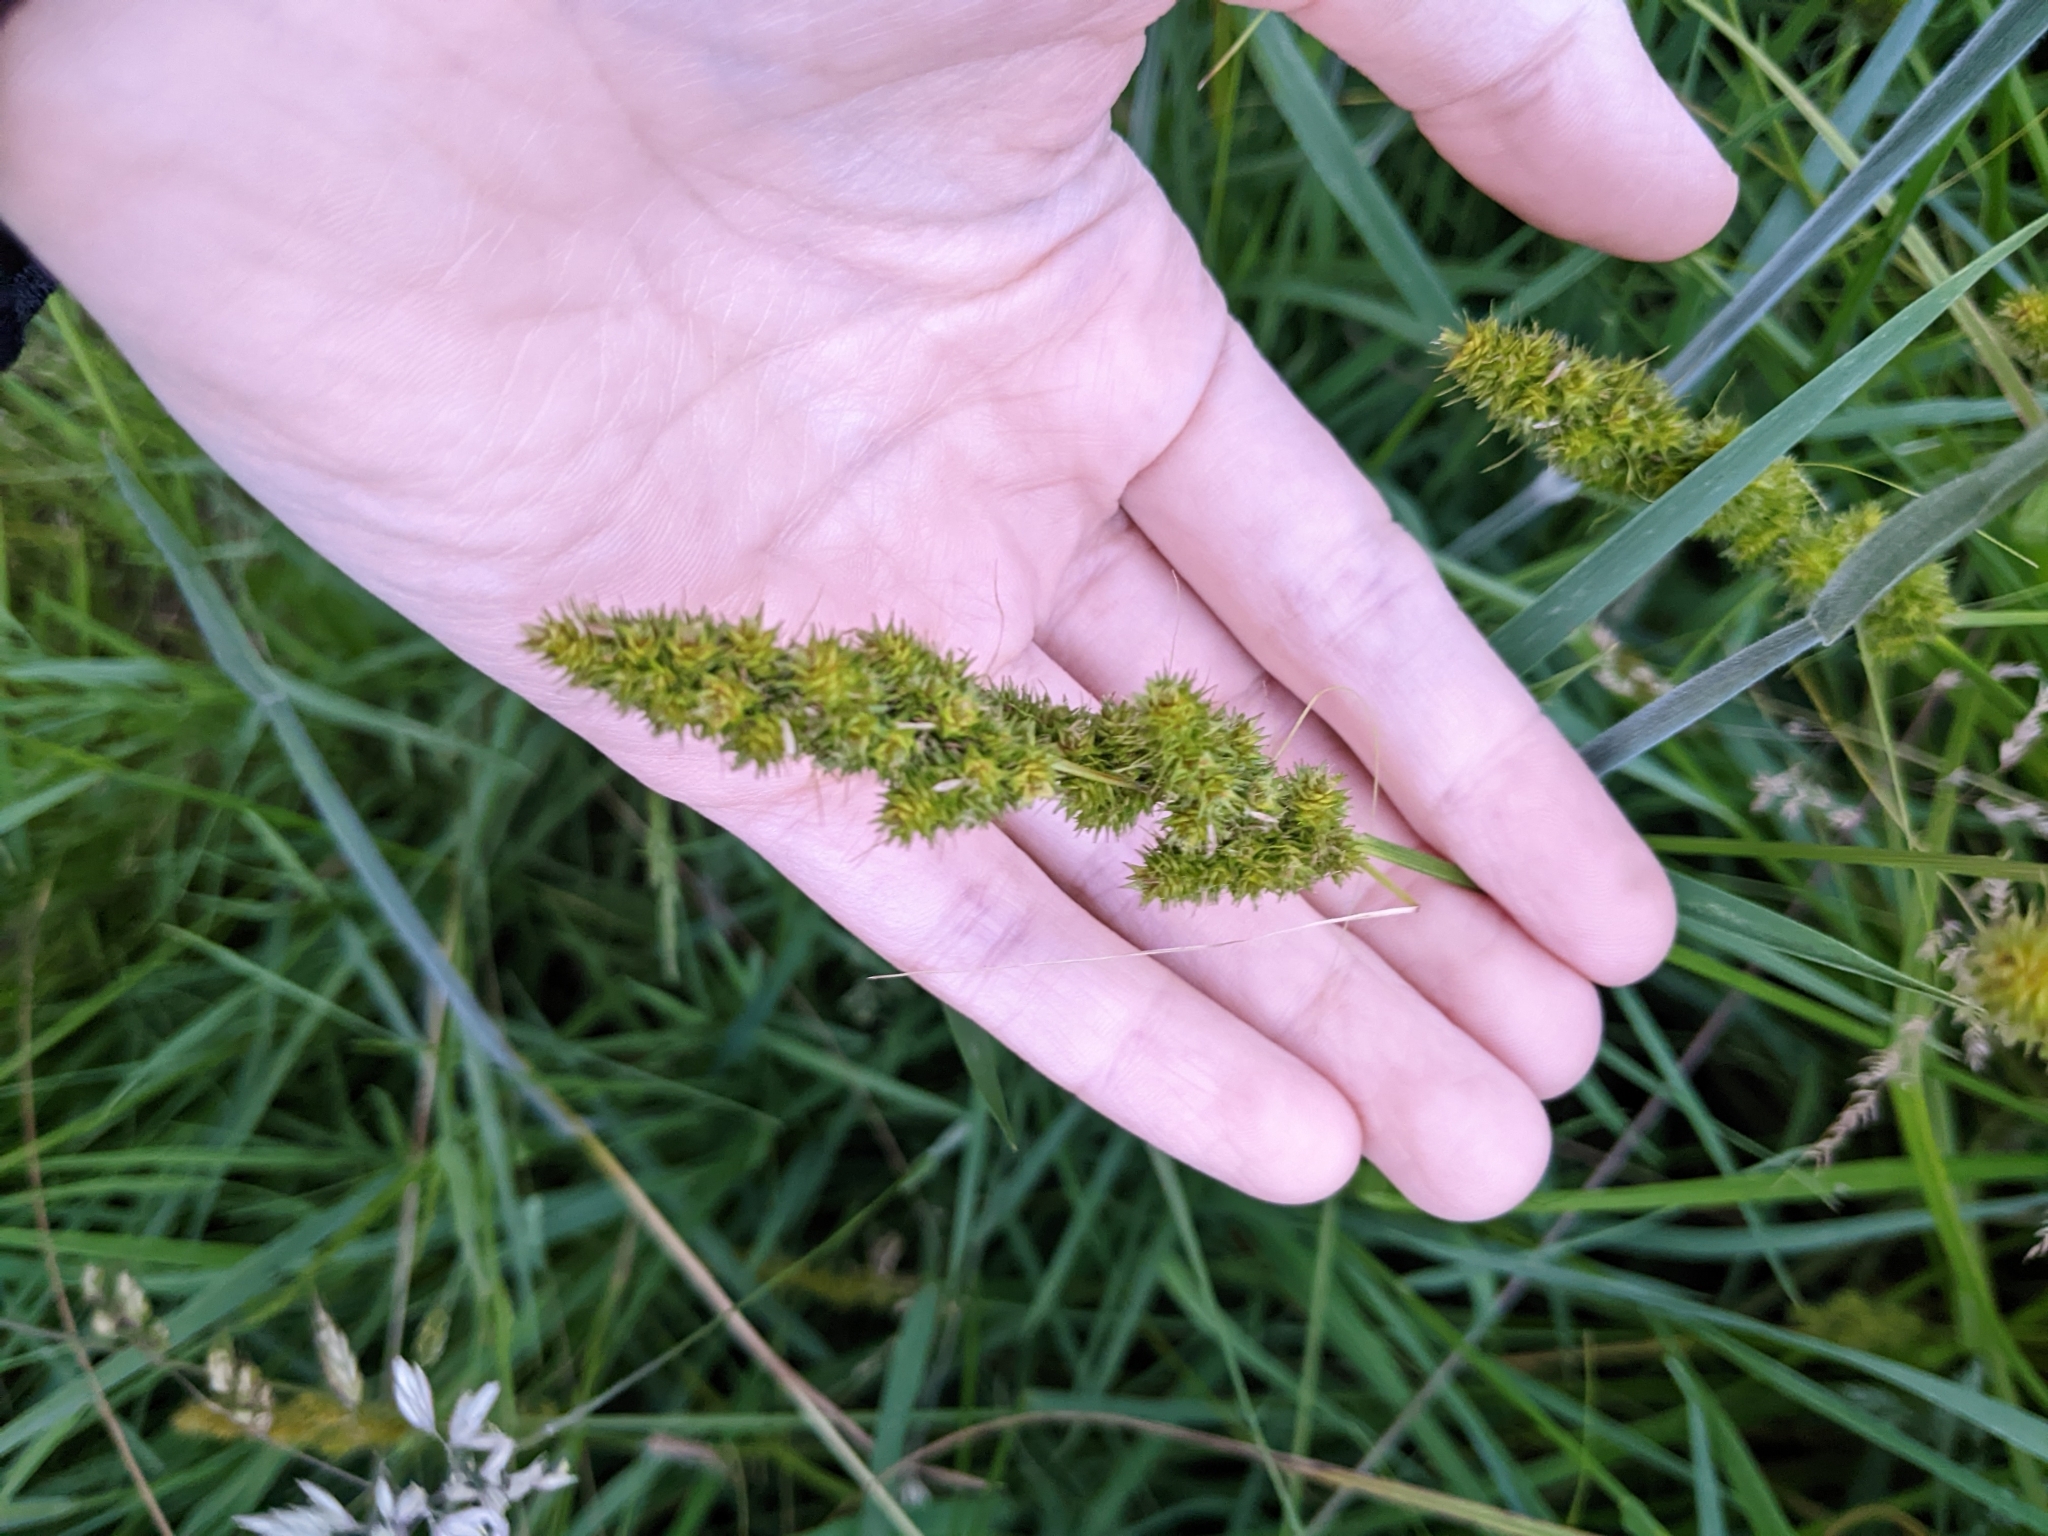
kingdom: Plantae
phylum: Tracheophyta
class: Liliopsida
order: Poales
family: Cyperaceae
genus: Carex
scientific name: Carex vulpinoidea
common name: American fox-sedge
